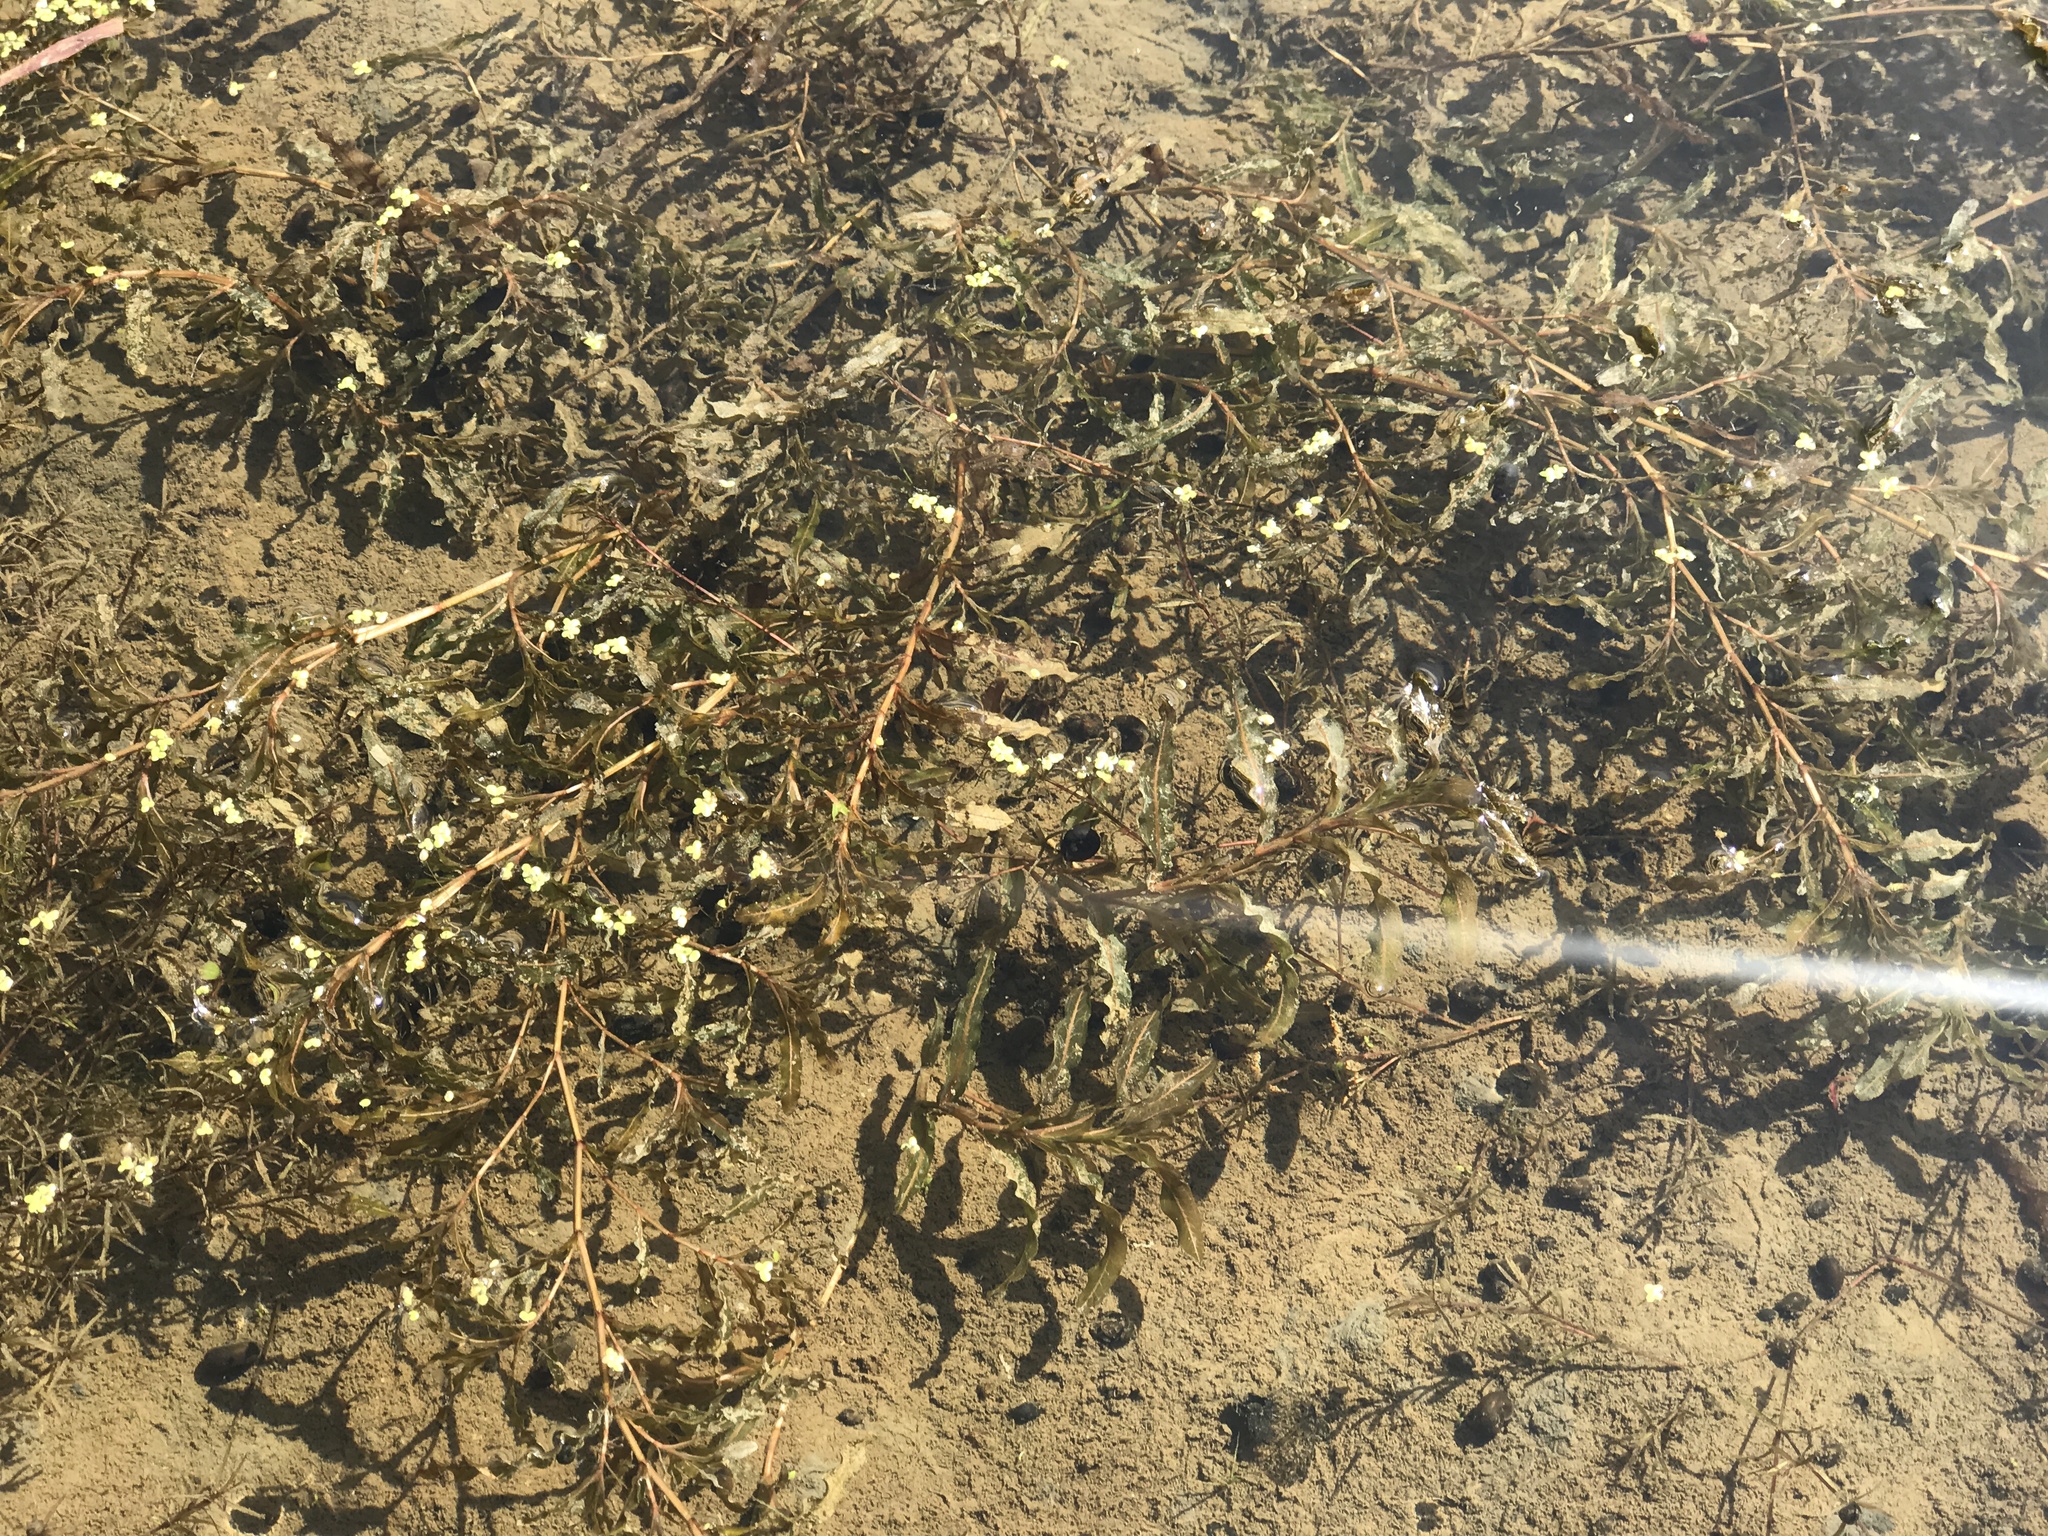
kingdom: Plantae
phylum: Tracheophyta
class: Liliopsida
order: Alismatales
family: Potamogetonaceae
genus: Potamogeton
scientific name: Potamogeton crispus
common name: Curled pondweed
